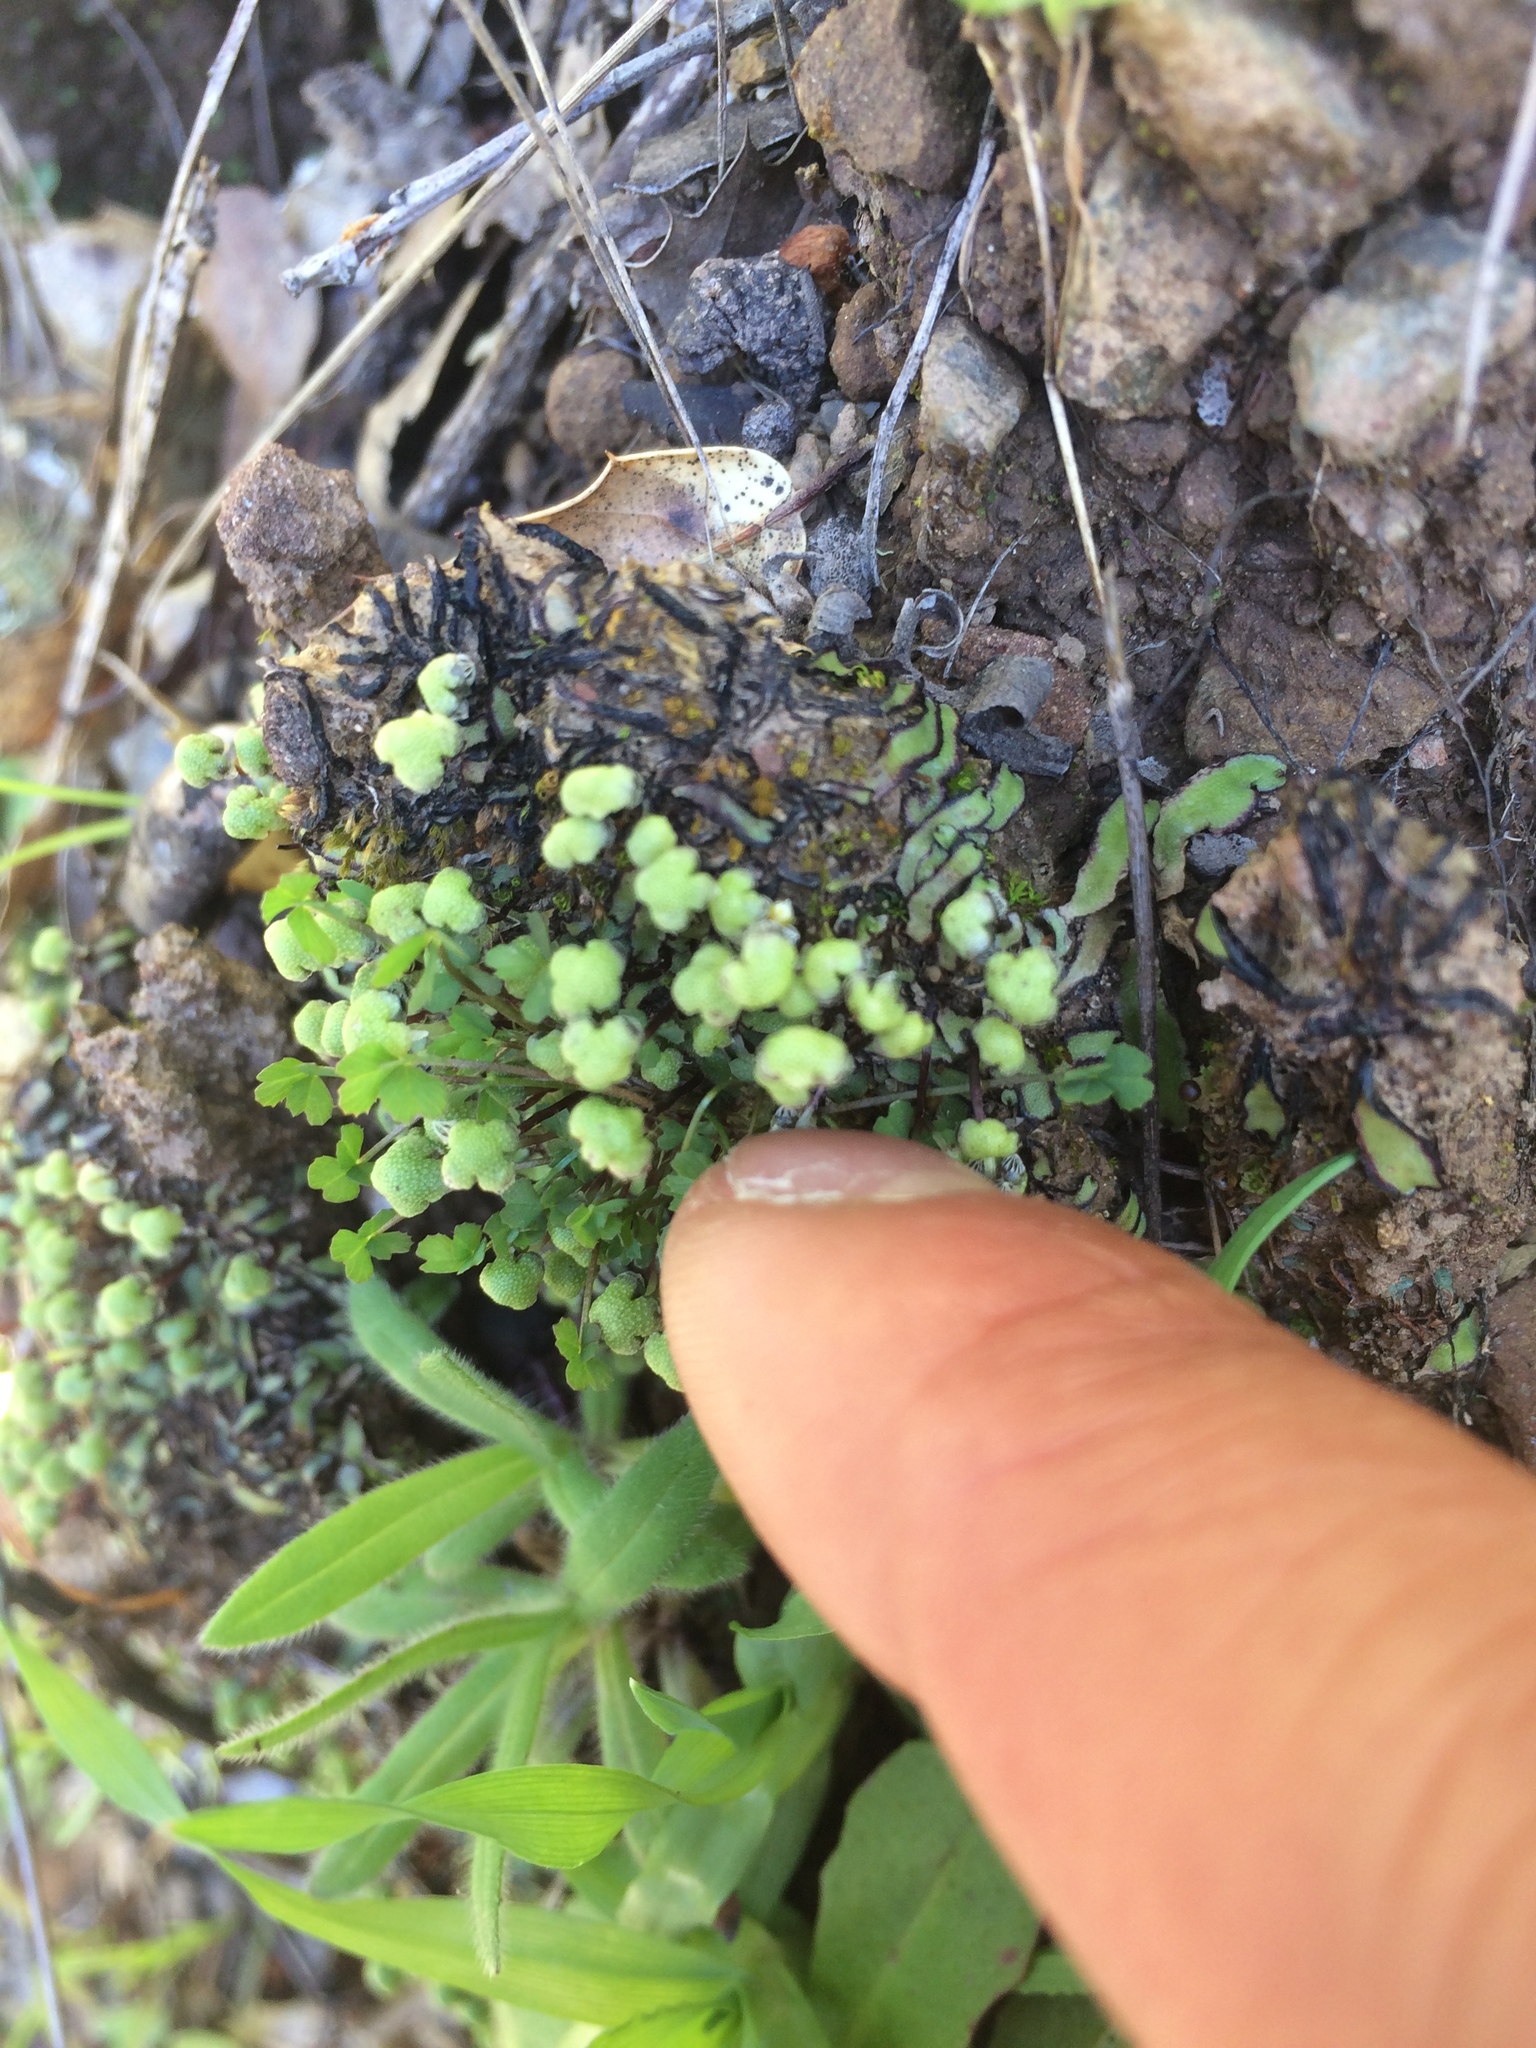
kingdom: Plantae
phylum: Marchantiophyta
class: Marchantiopsida
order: Marchantiales
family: Aytoniaceae
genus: Asterella
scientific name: Asterella californica
